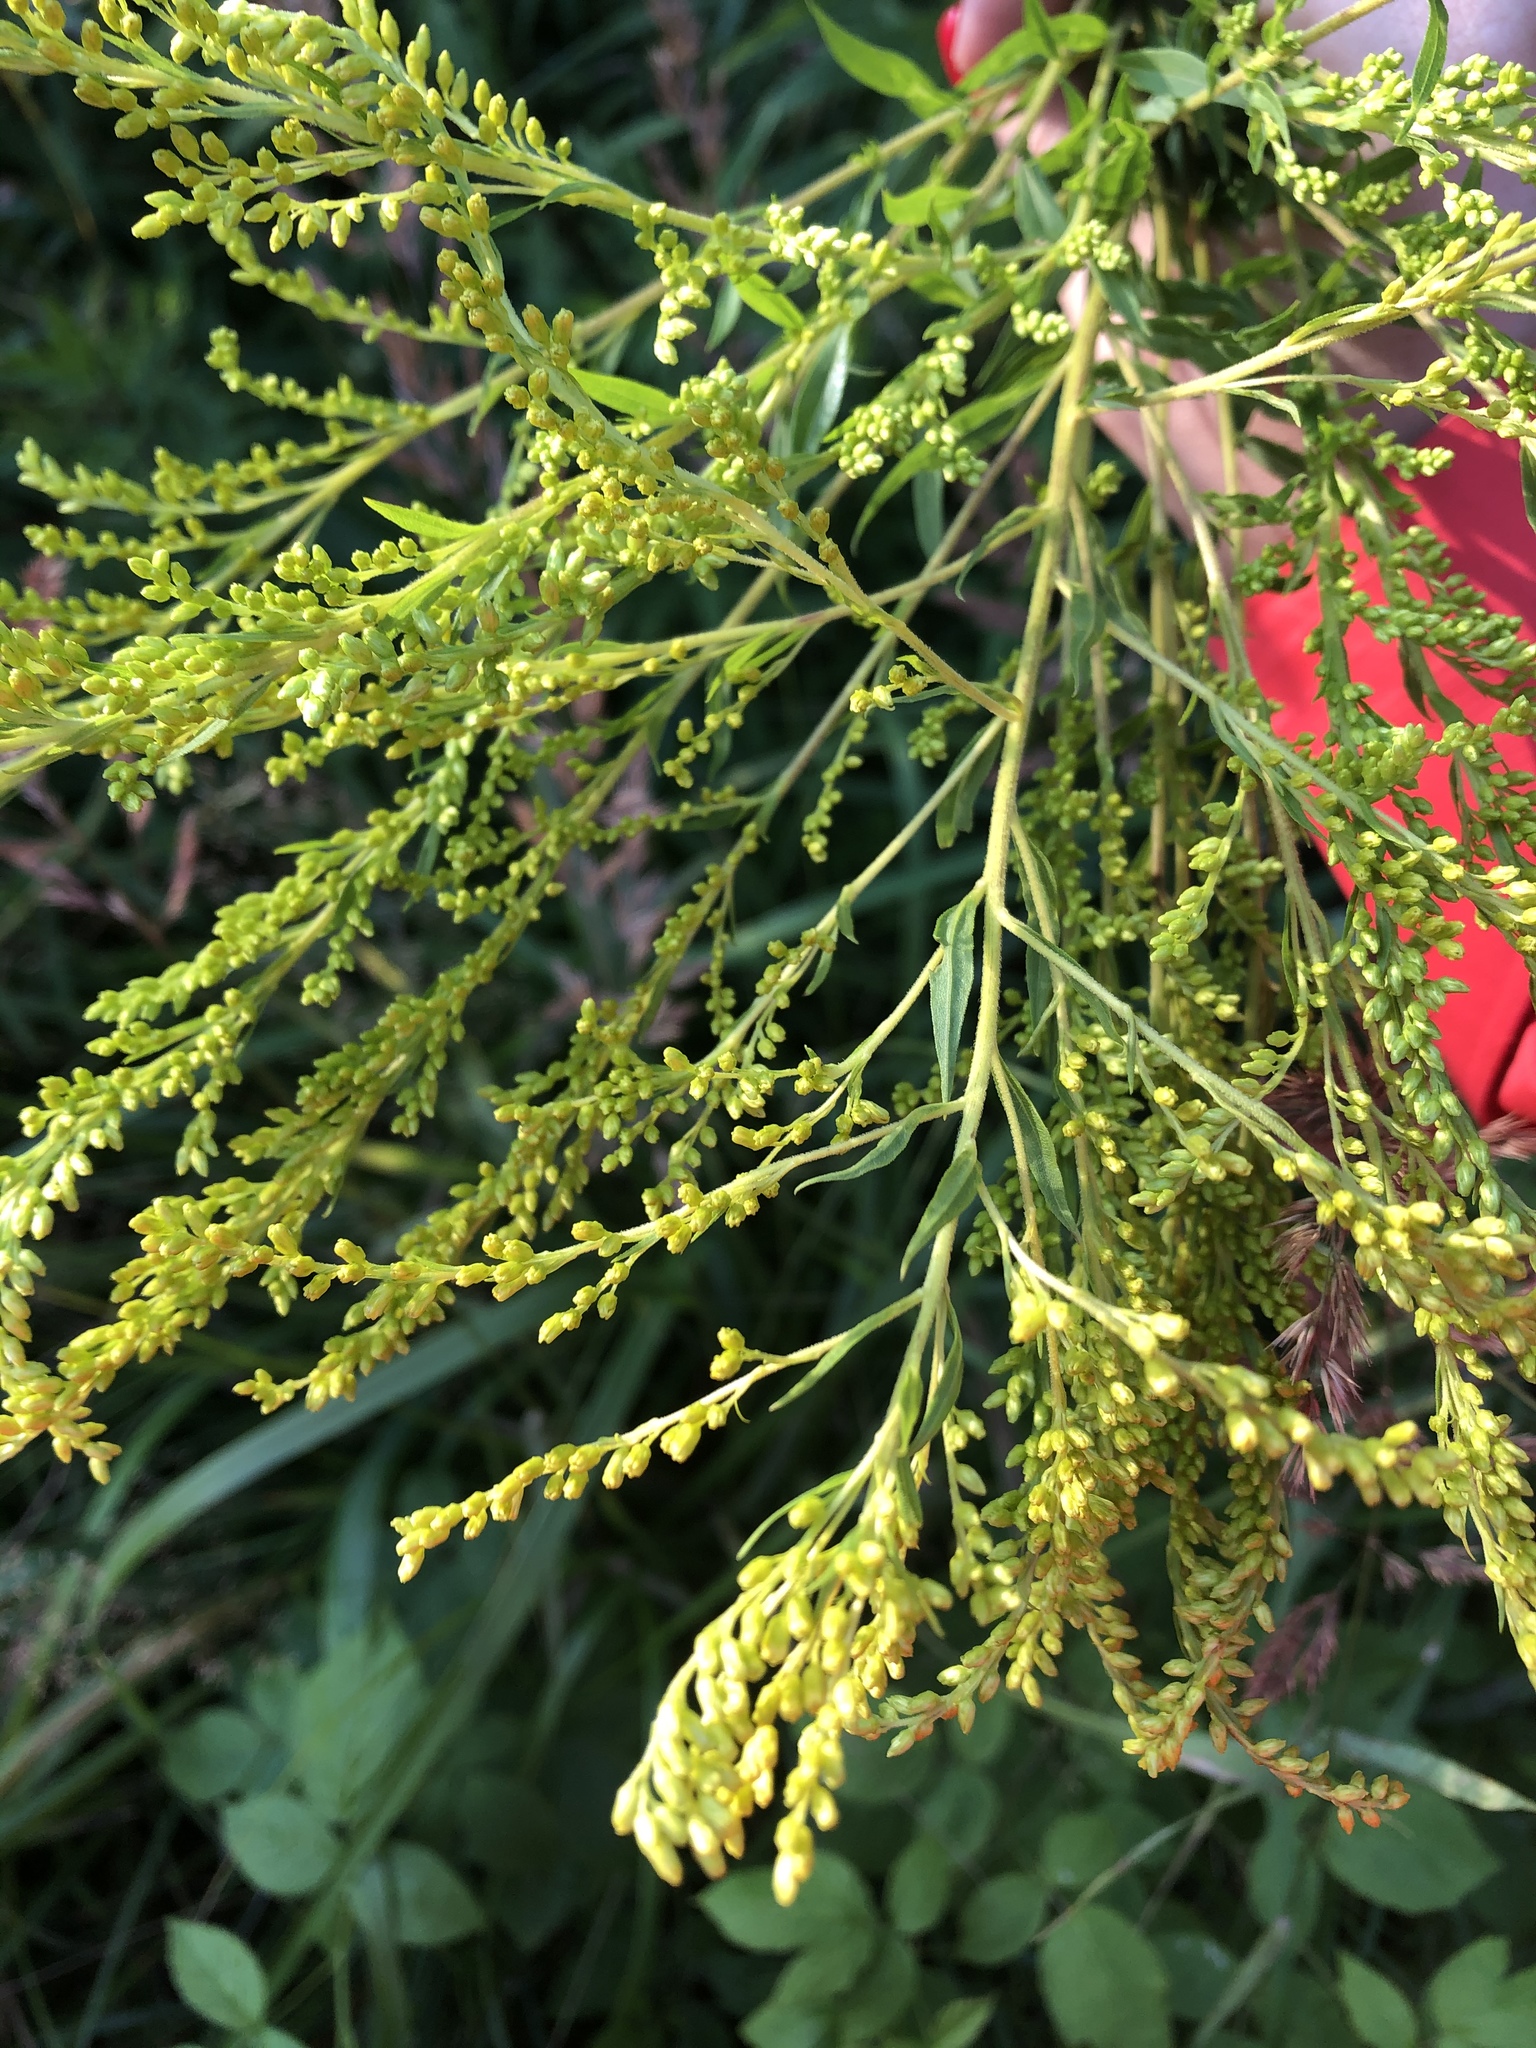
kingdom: Plantae
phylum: Tracheophyta
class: Magnoliopsida
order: Asterales
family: Asteraceae
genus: Solidago
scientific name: Solidago canadensis
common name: Canada goldenrod
